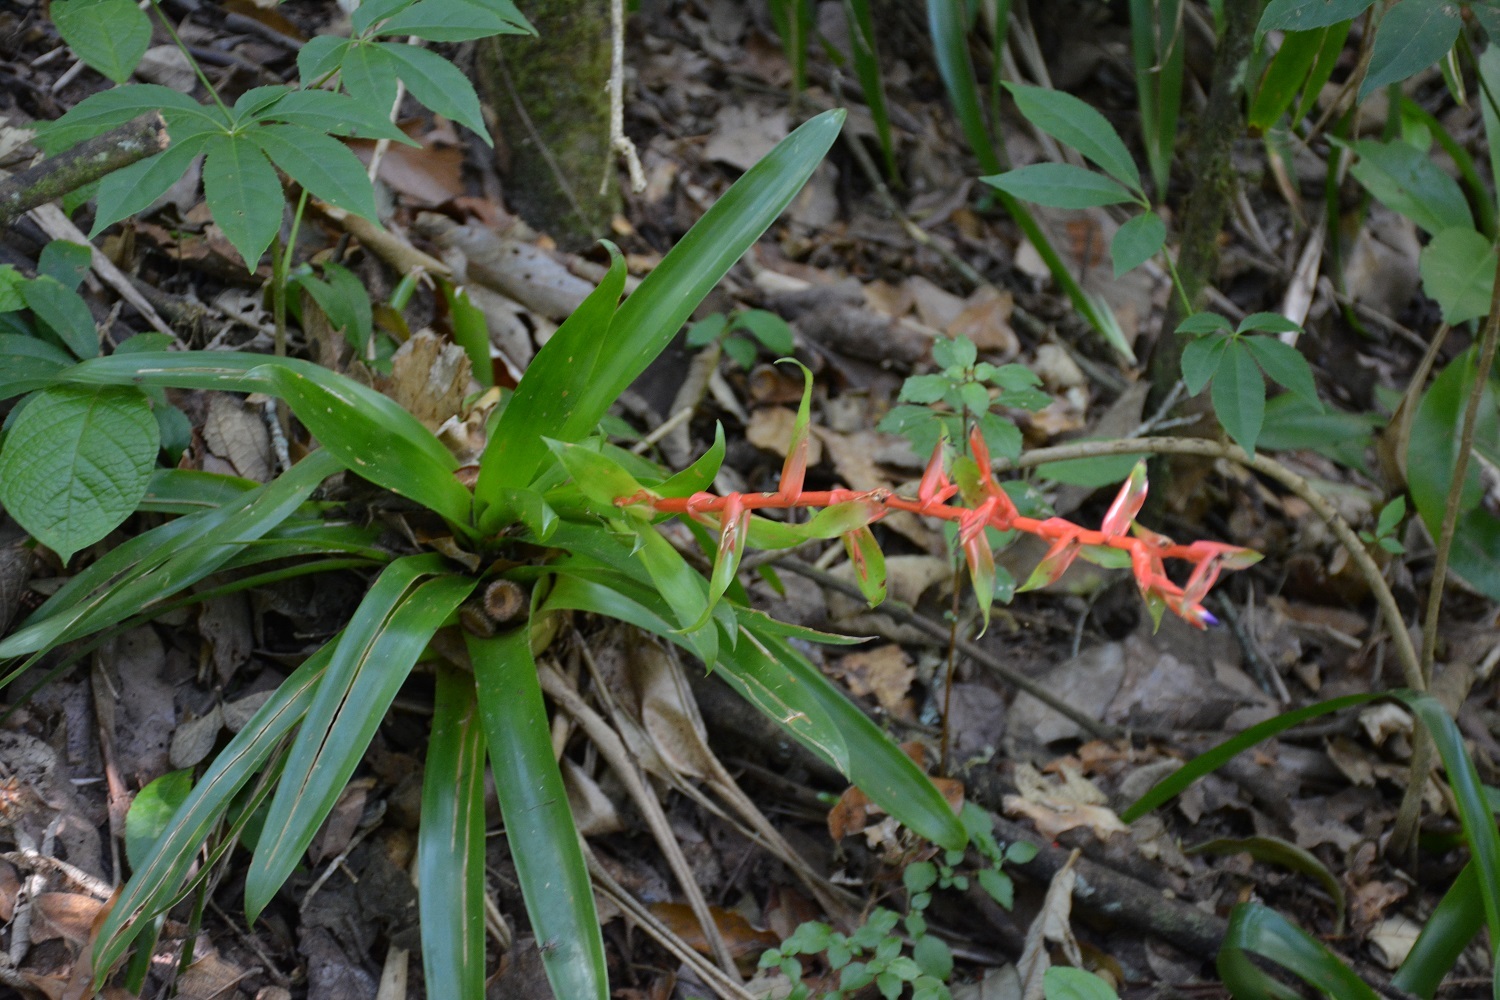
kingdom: Plantae
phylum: Tracheophyta
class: Liliopsida
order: Poales
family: Bromeliaceae
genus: Tillandsia
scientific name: Tillandsia guatemalensis
